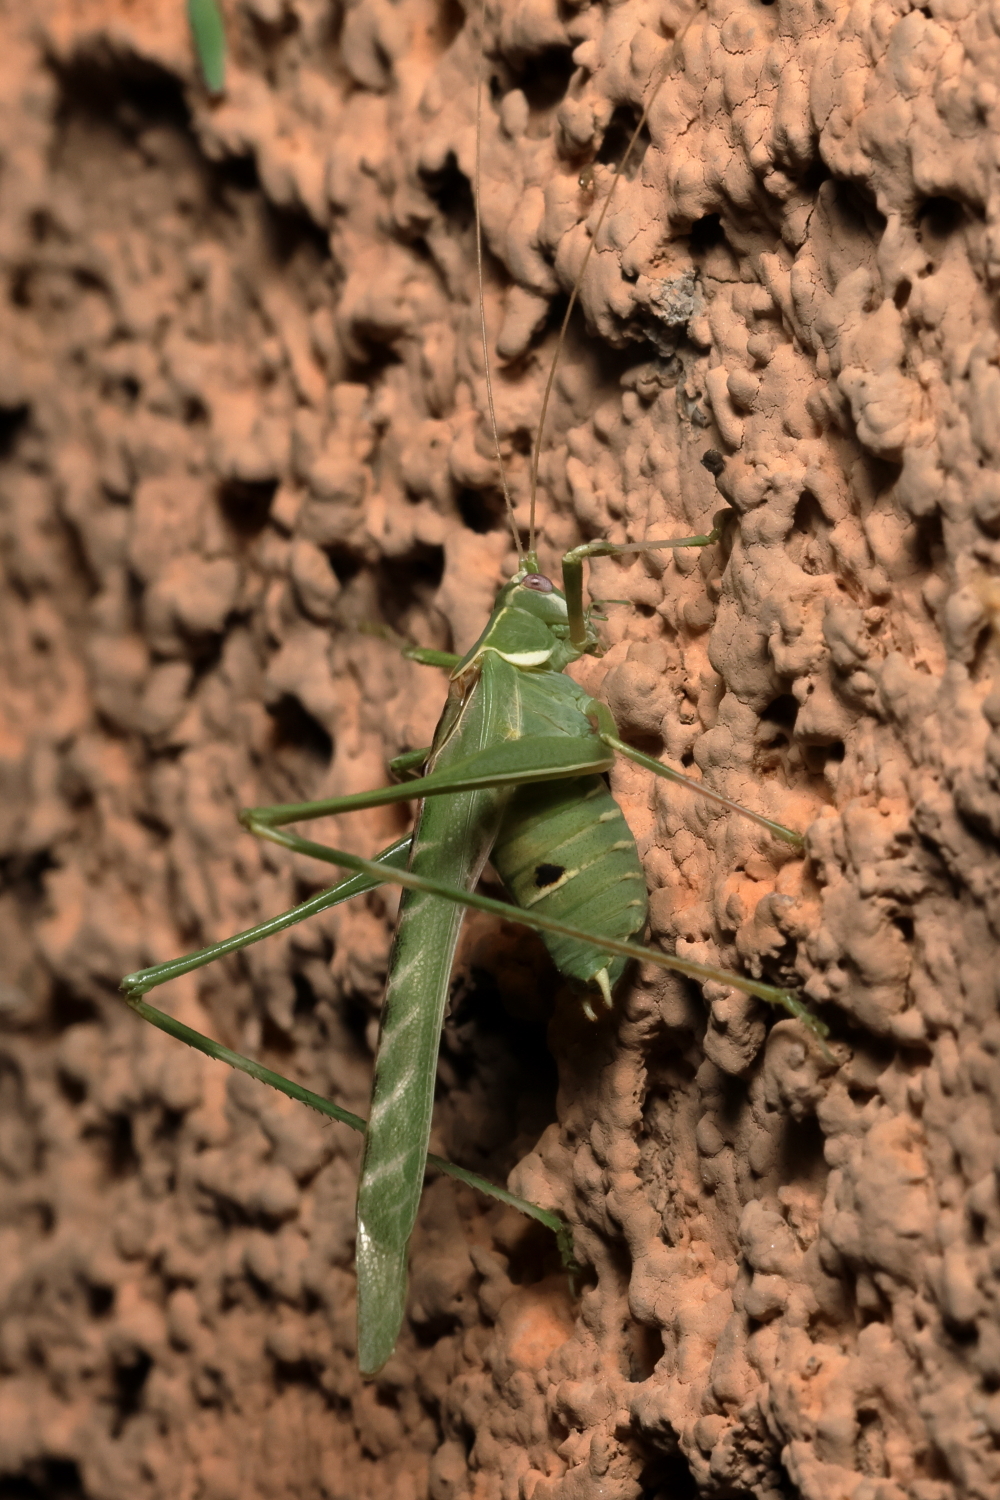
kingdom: Animalia
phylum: Arthropoda
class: Insecta
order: Orthoptera
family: Tettigoniidae
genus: Insara
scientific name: Insara elegans
